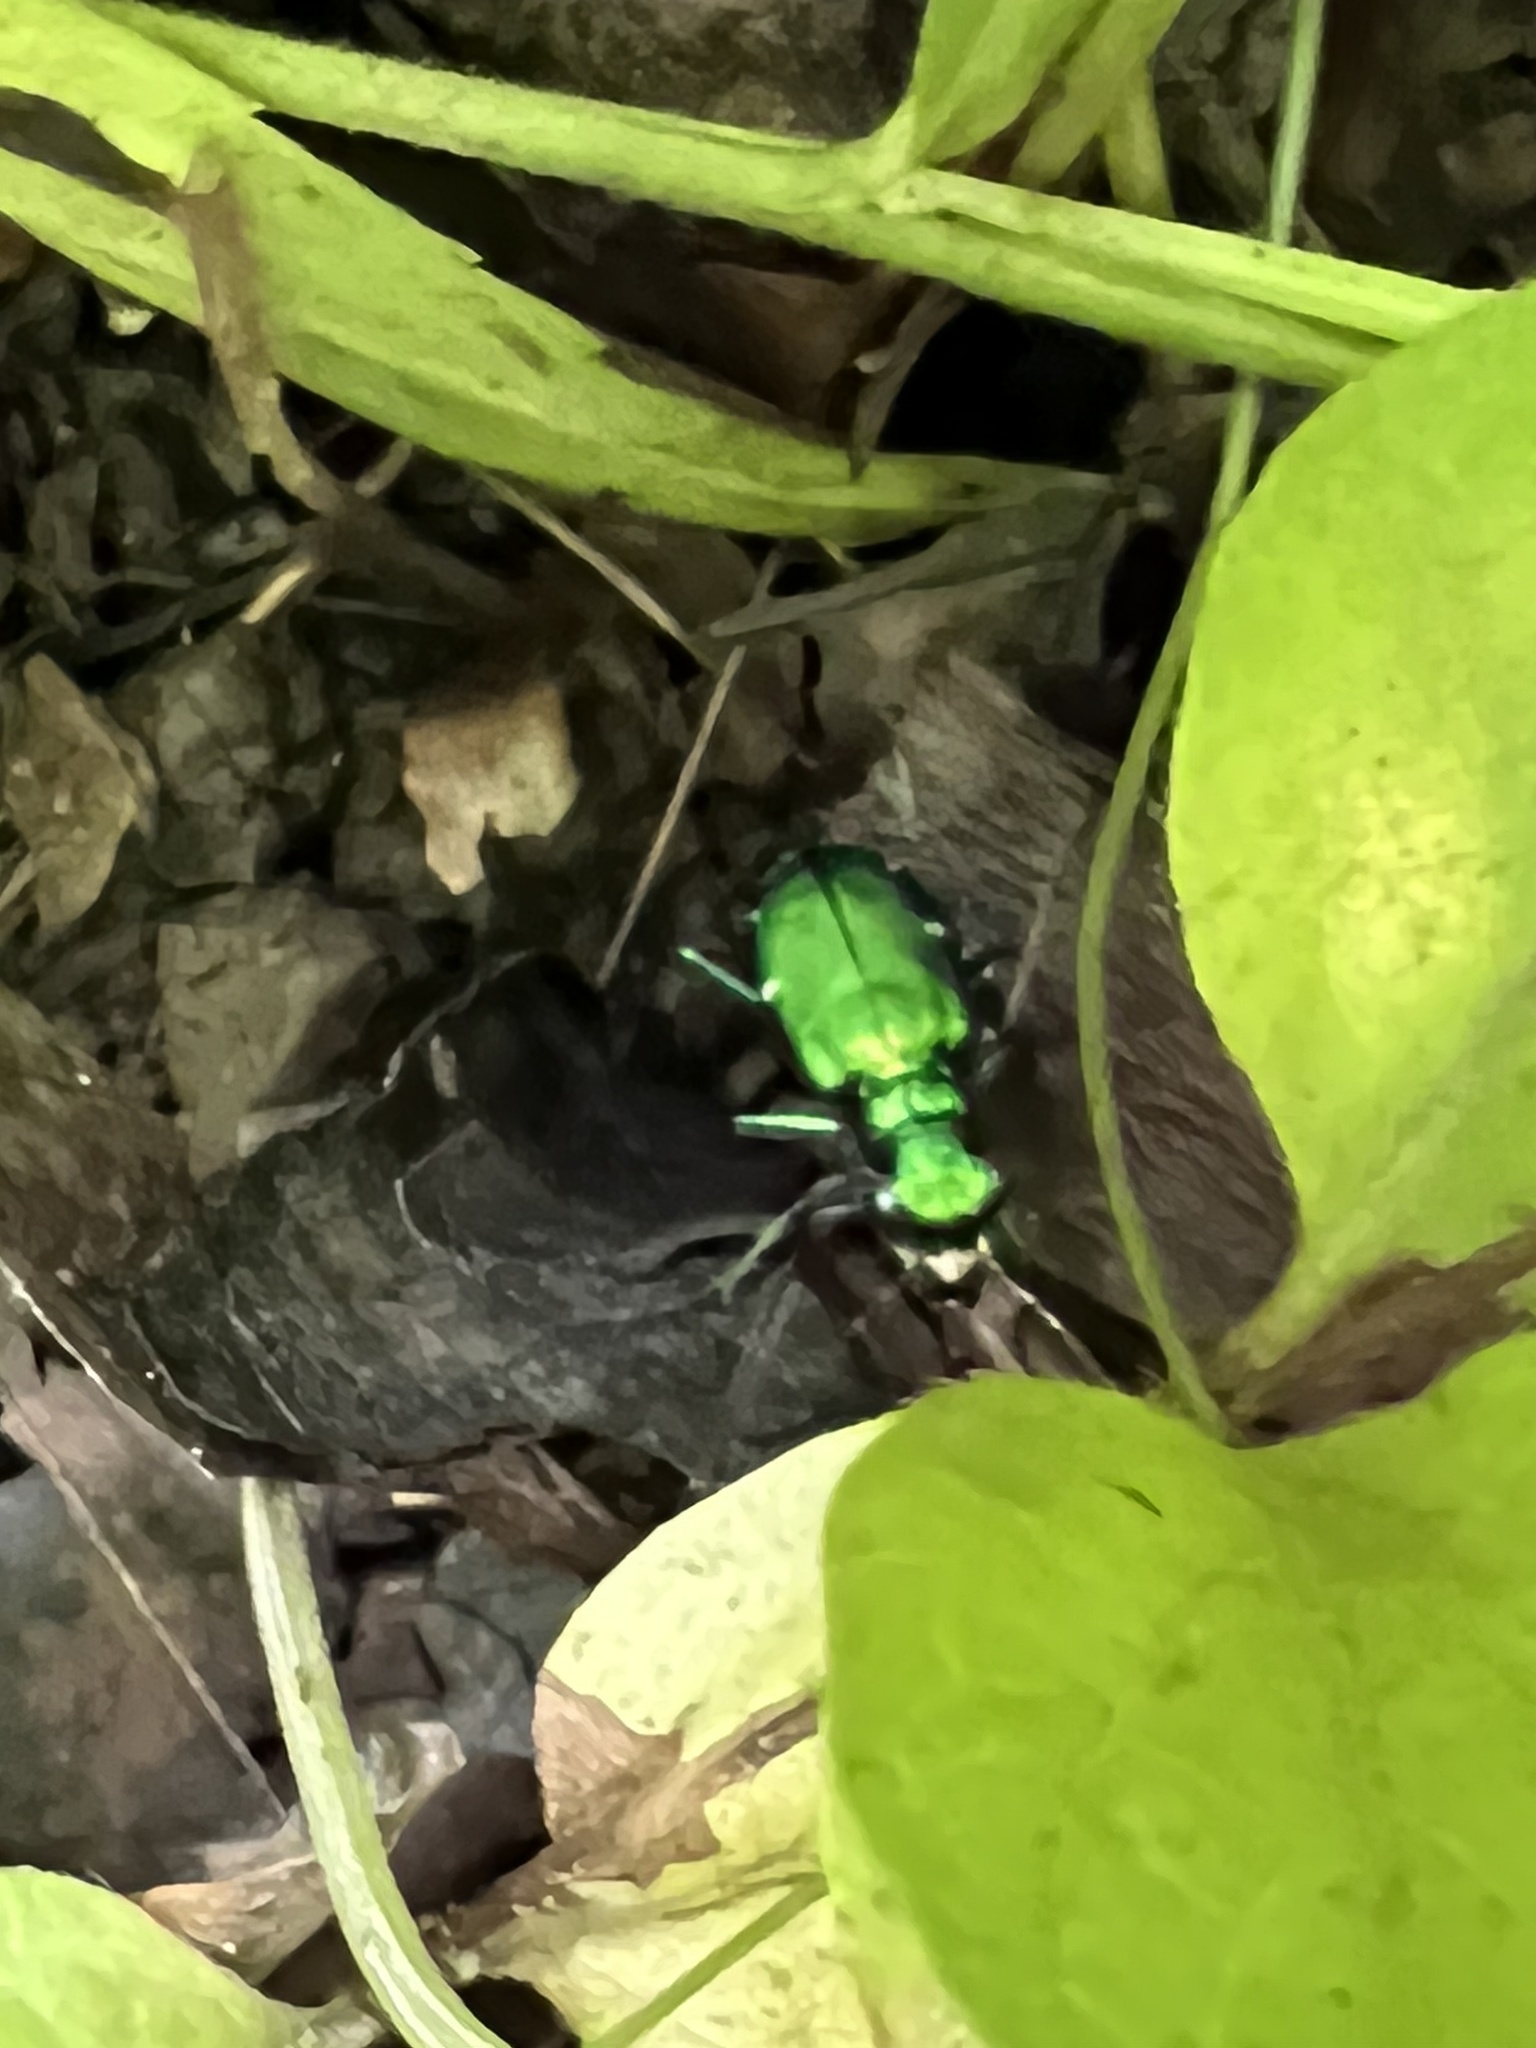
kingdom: Animalia
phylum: Arthropoda
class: Insecta
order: Coleoptera
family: Carabidae
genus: Cicindela
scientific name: Cicindela sexguttata
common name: Six-spotted tiger beetle
